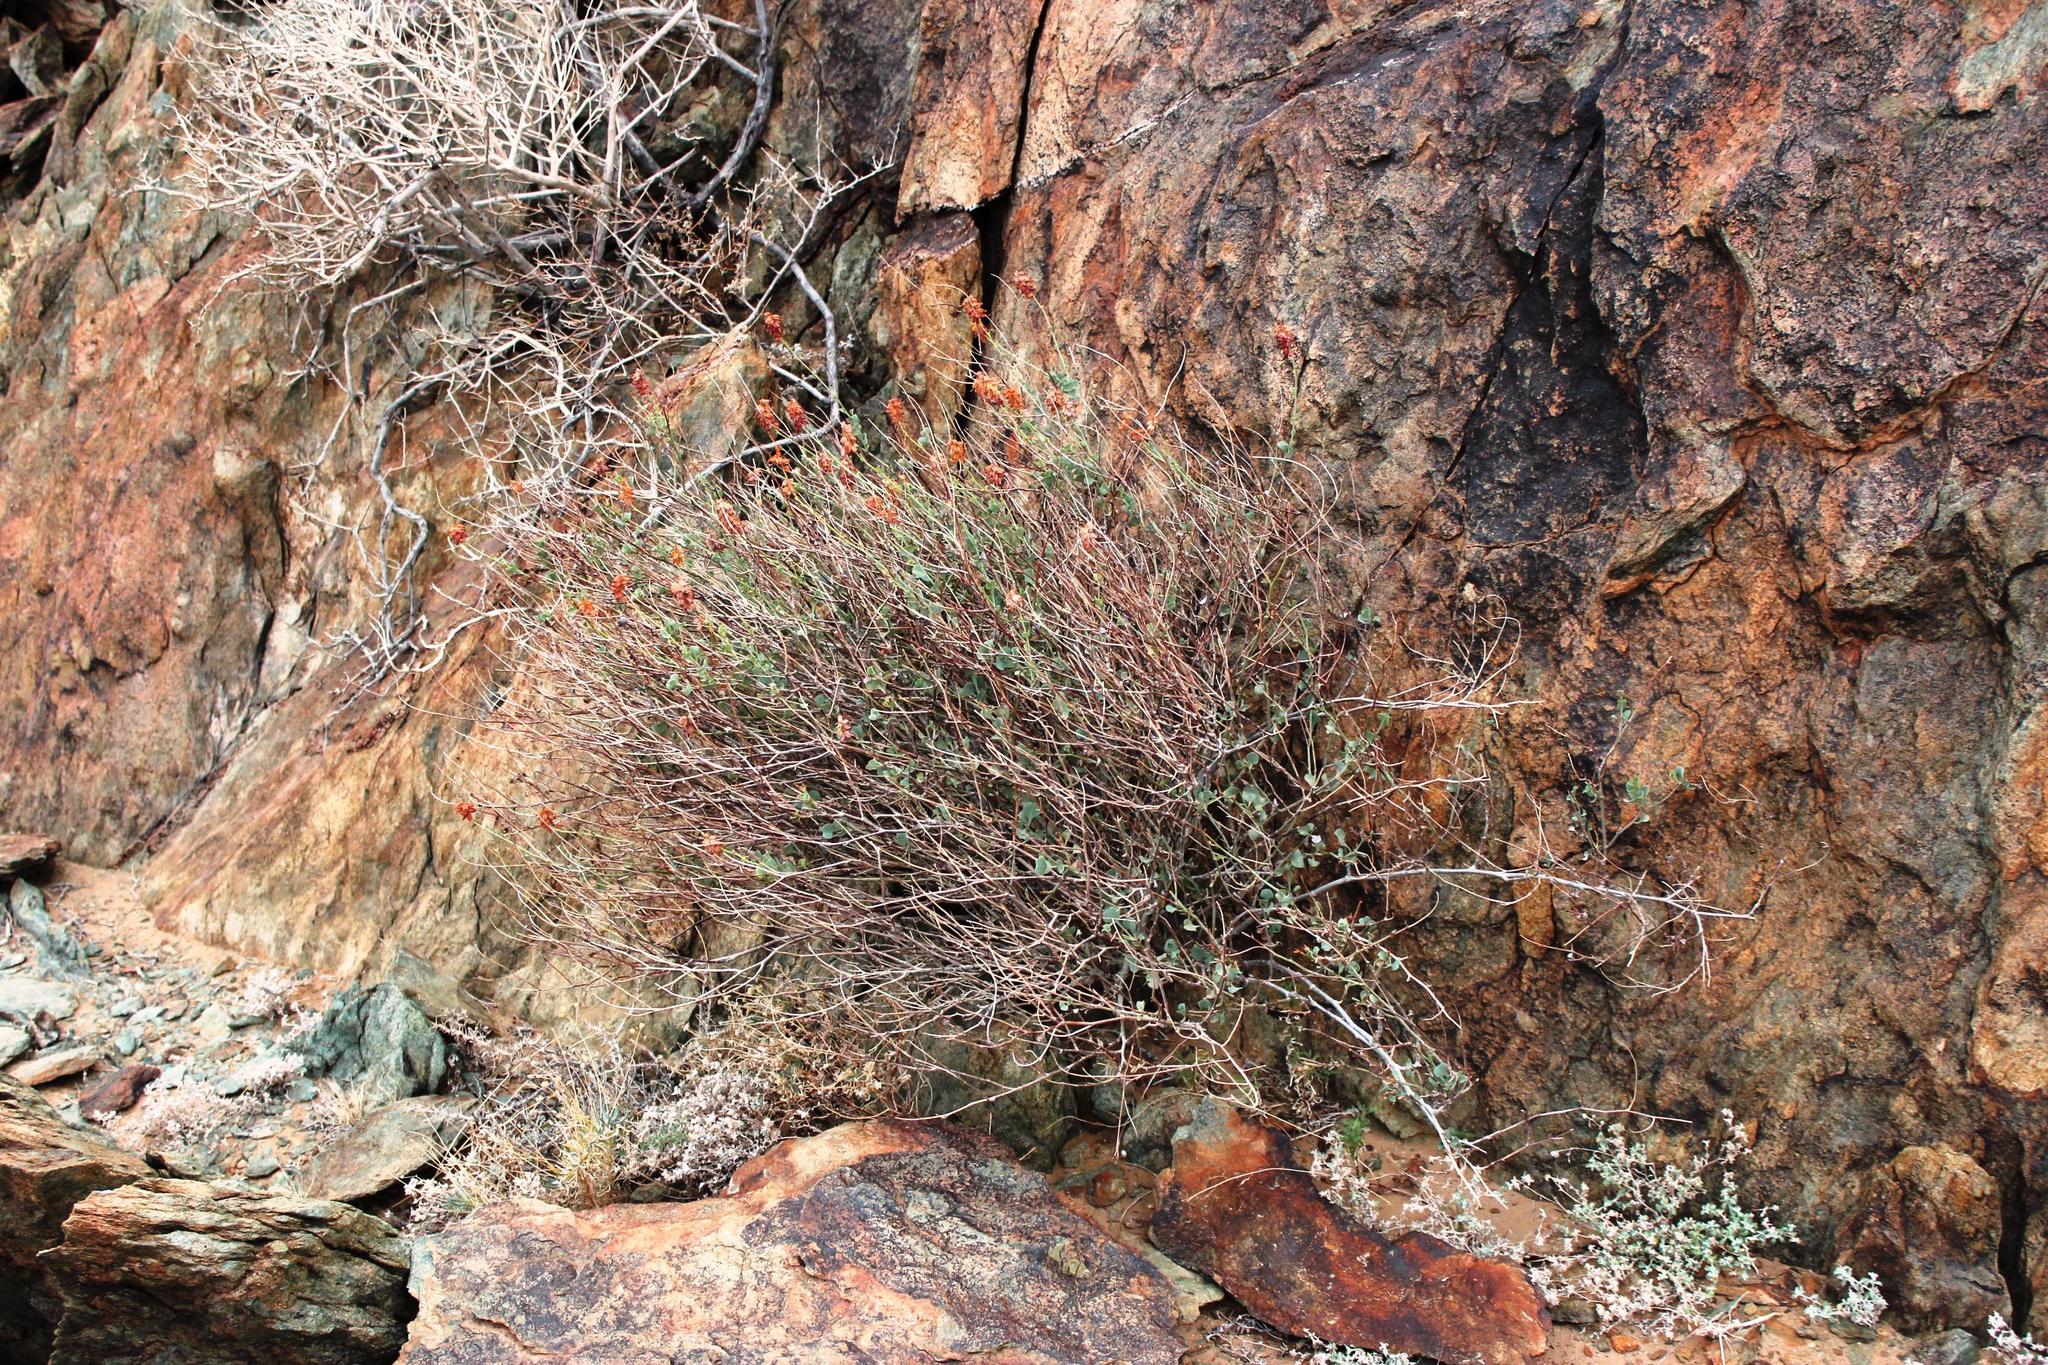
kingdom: Plantae
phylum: Tracheophyta
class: Magnoliopsida
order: Caryophyllales
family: Plumbaginaceae
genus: Dyerophytum
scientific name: Dyerophytum africanum
